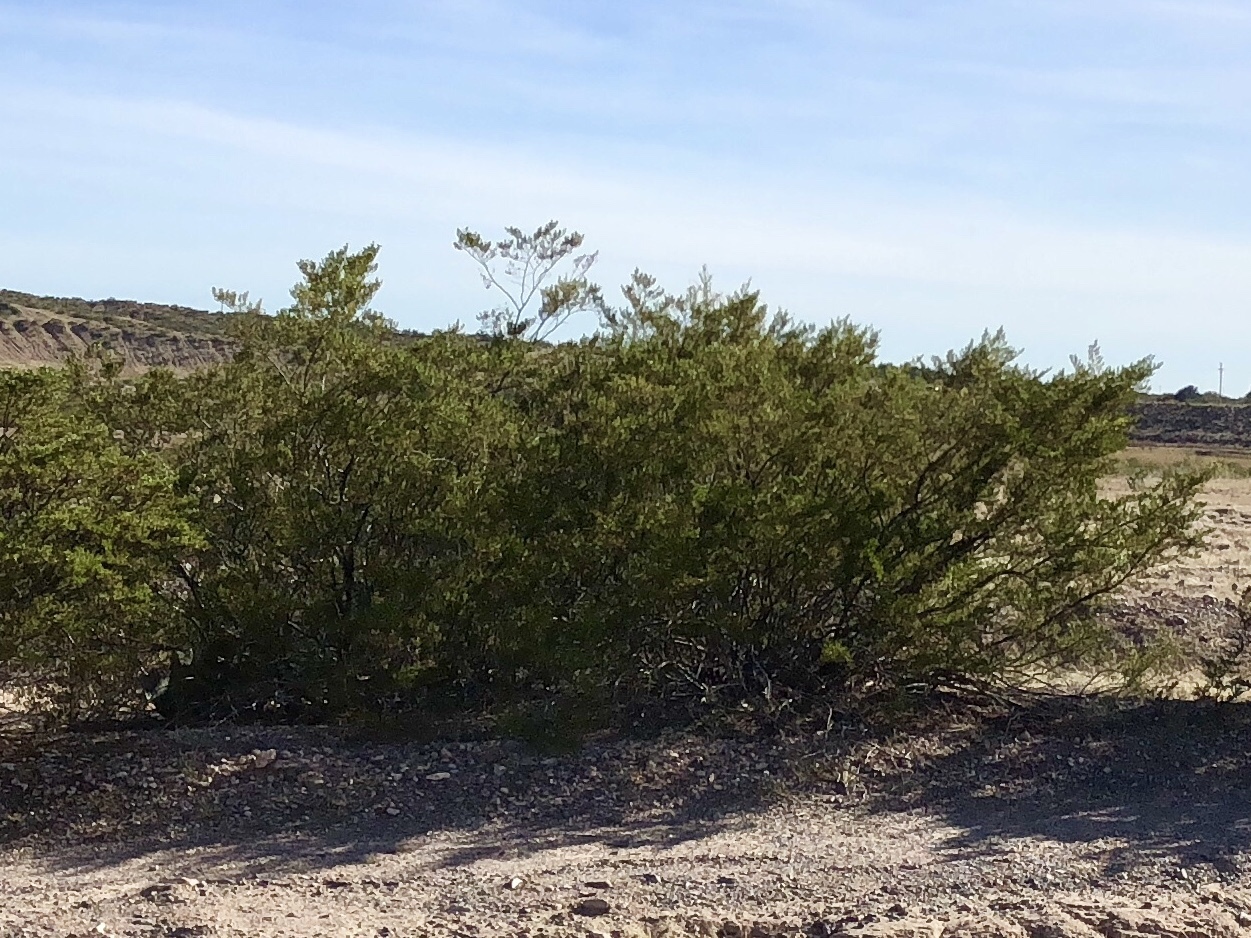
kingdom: Plantae
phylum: Tracheophyta
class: Magnoliopsida
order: Zygophyllales
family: Zygophyllaceae
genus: Larrea
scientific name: Larrea tridentata
